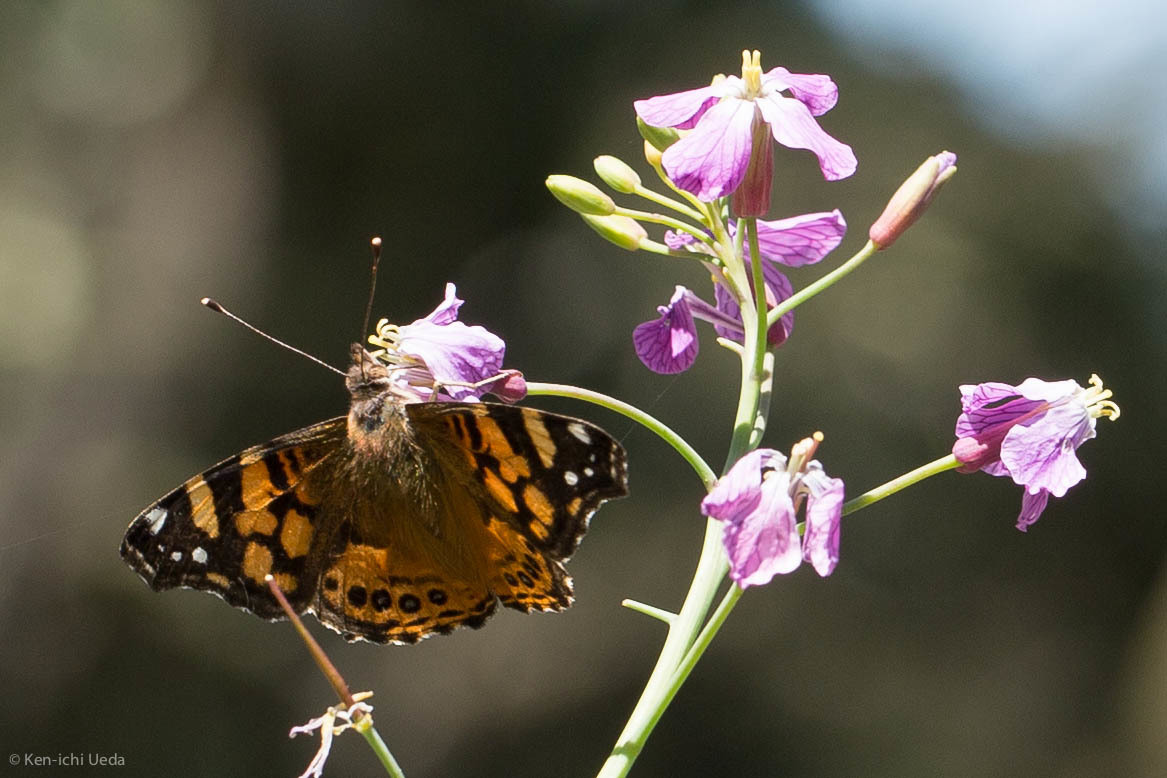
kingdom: Animalia
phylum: Arthropoda
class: Insecta
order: Lepidoptera
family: Nymphalidae
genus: Vanessa
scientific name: Vanessa annabella
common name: West coast lady
